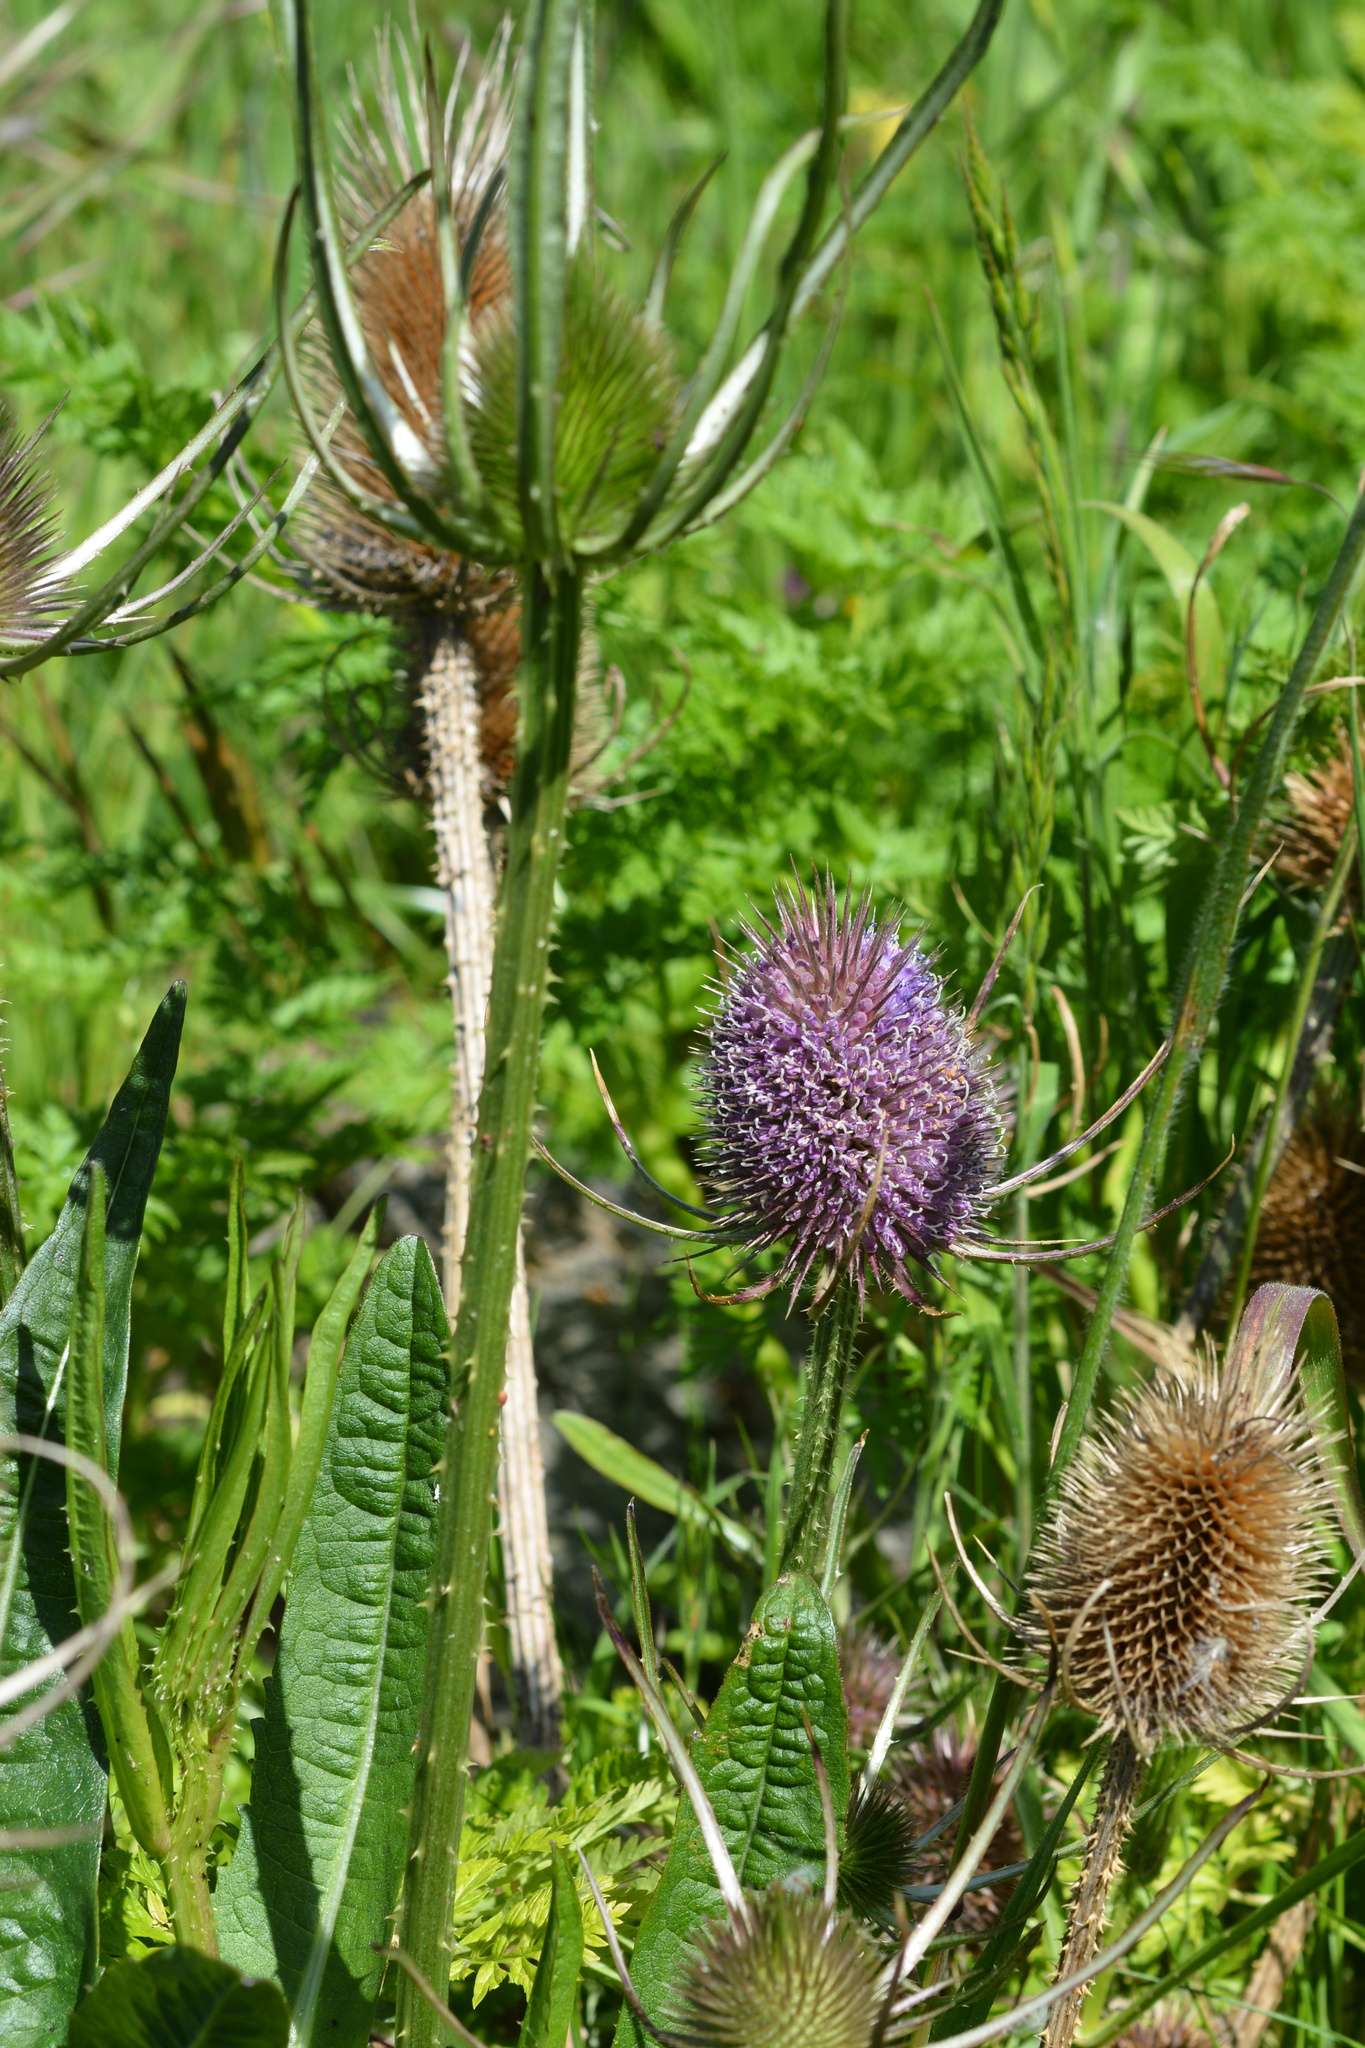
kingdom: Plantae
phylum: Tracheophyta
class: Magnoliopsida
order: Dipsacales
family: Caprifoliaceae
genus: Dipsacus
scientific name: Dipsacus fullonum
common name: Teasel
